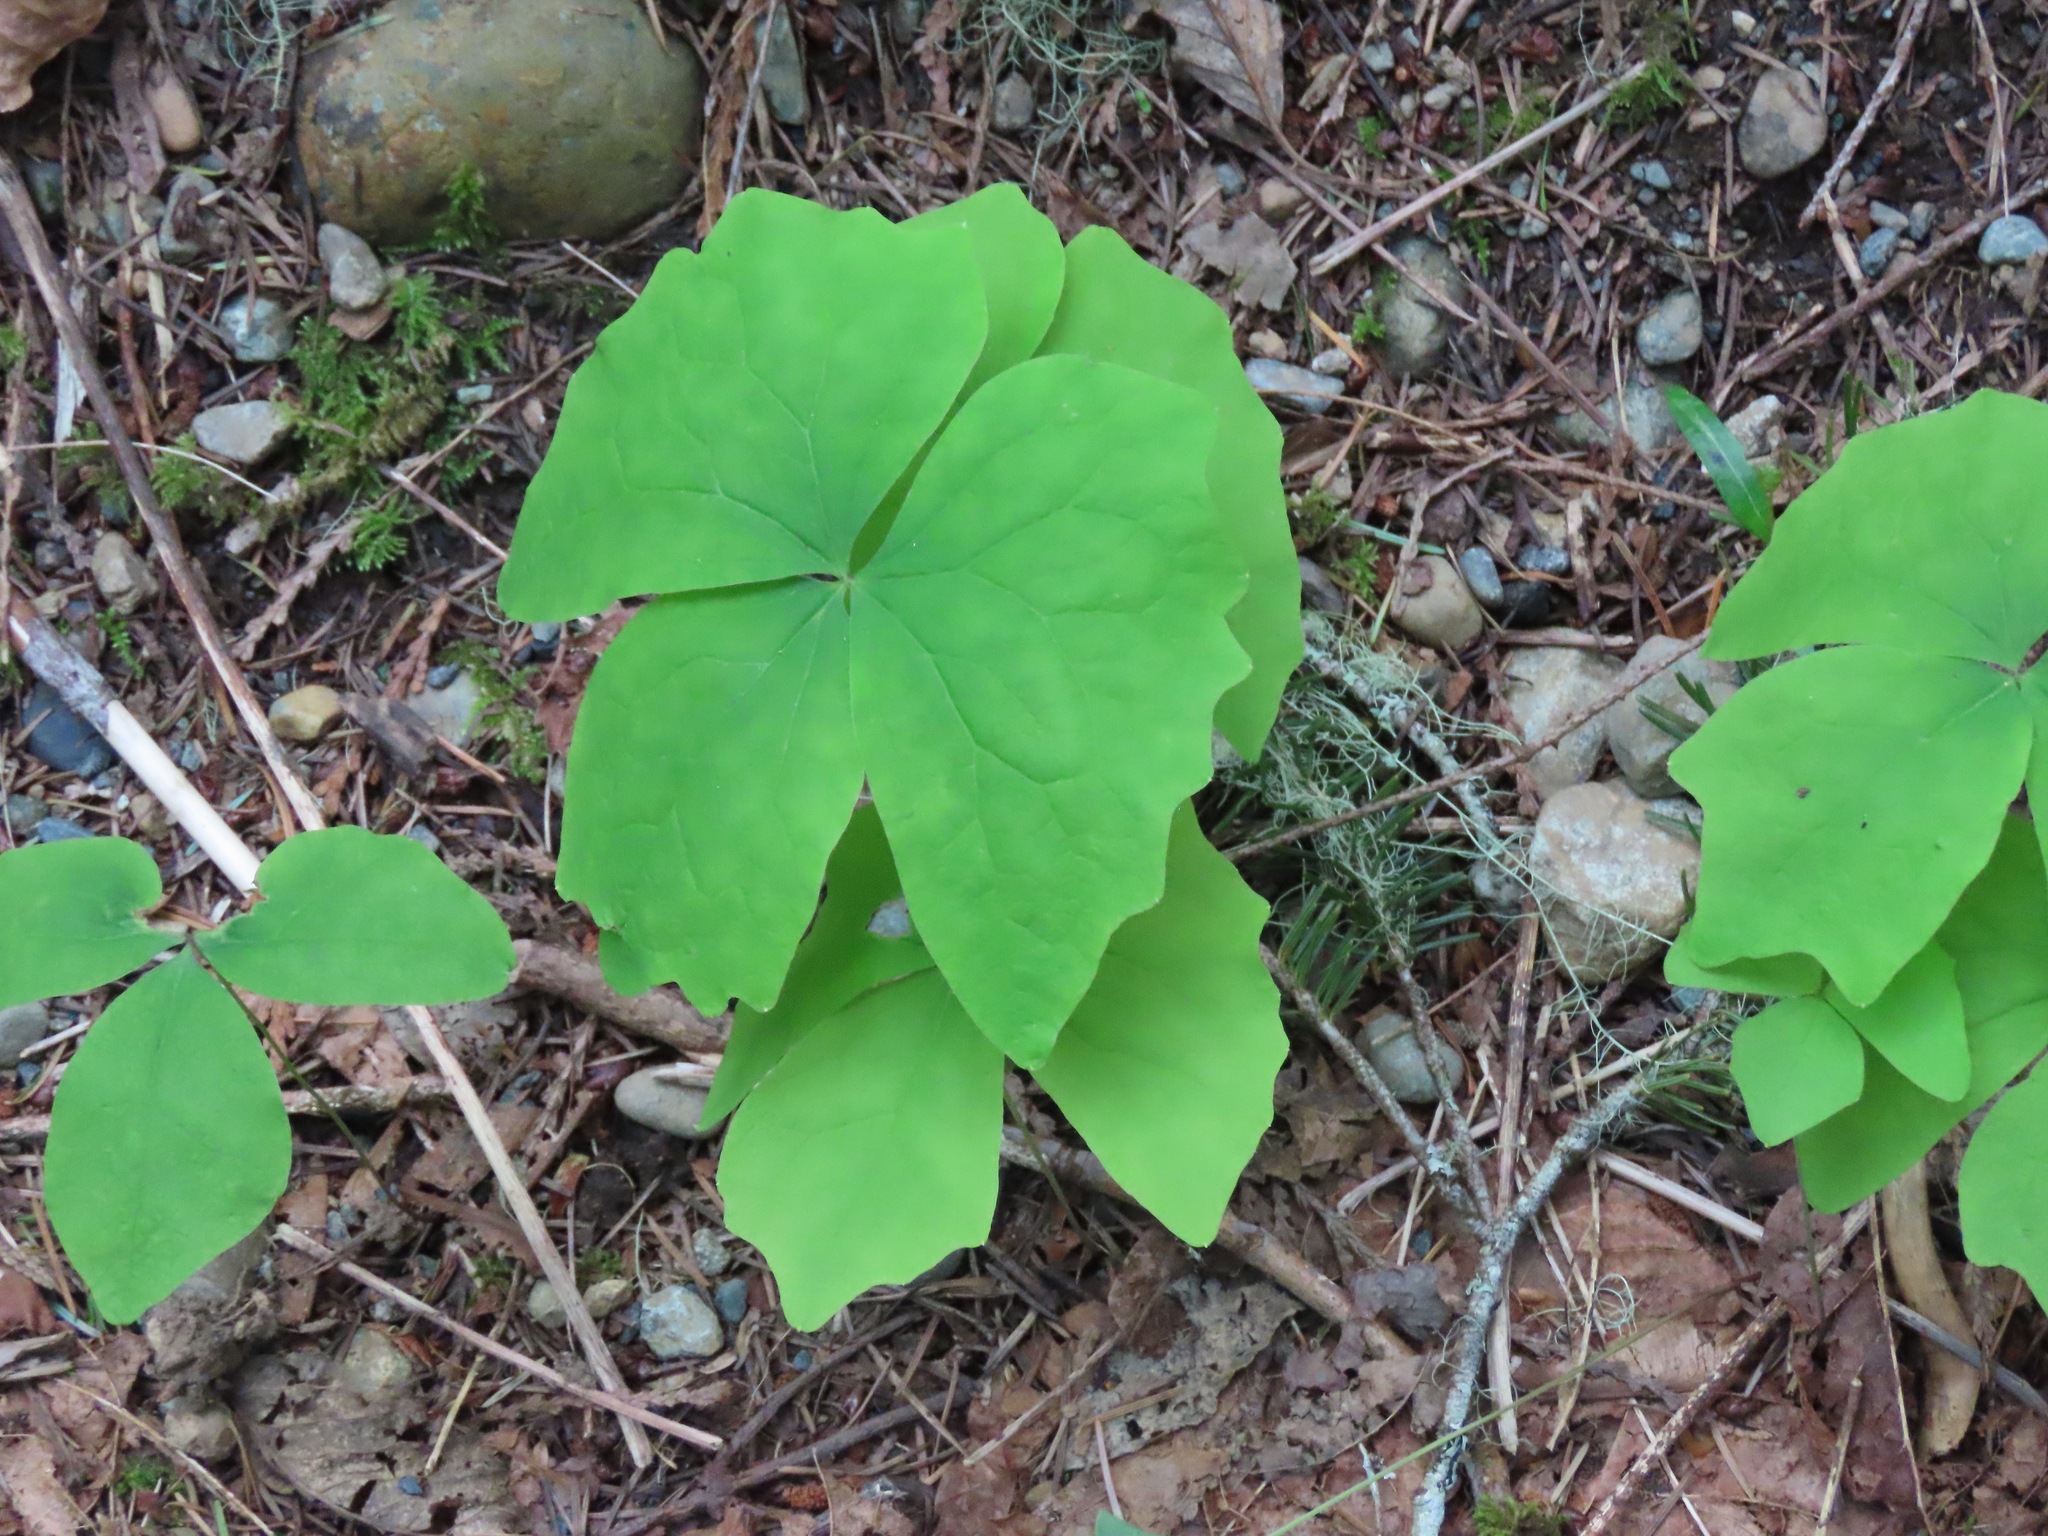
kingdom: Plantae
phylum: Tracheophyta
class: Magnoliopsida
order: Ranunculales
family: Berberidaceae
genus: Achlys
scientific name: Achlys triphylla
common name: Vanilla-leaf
